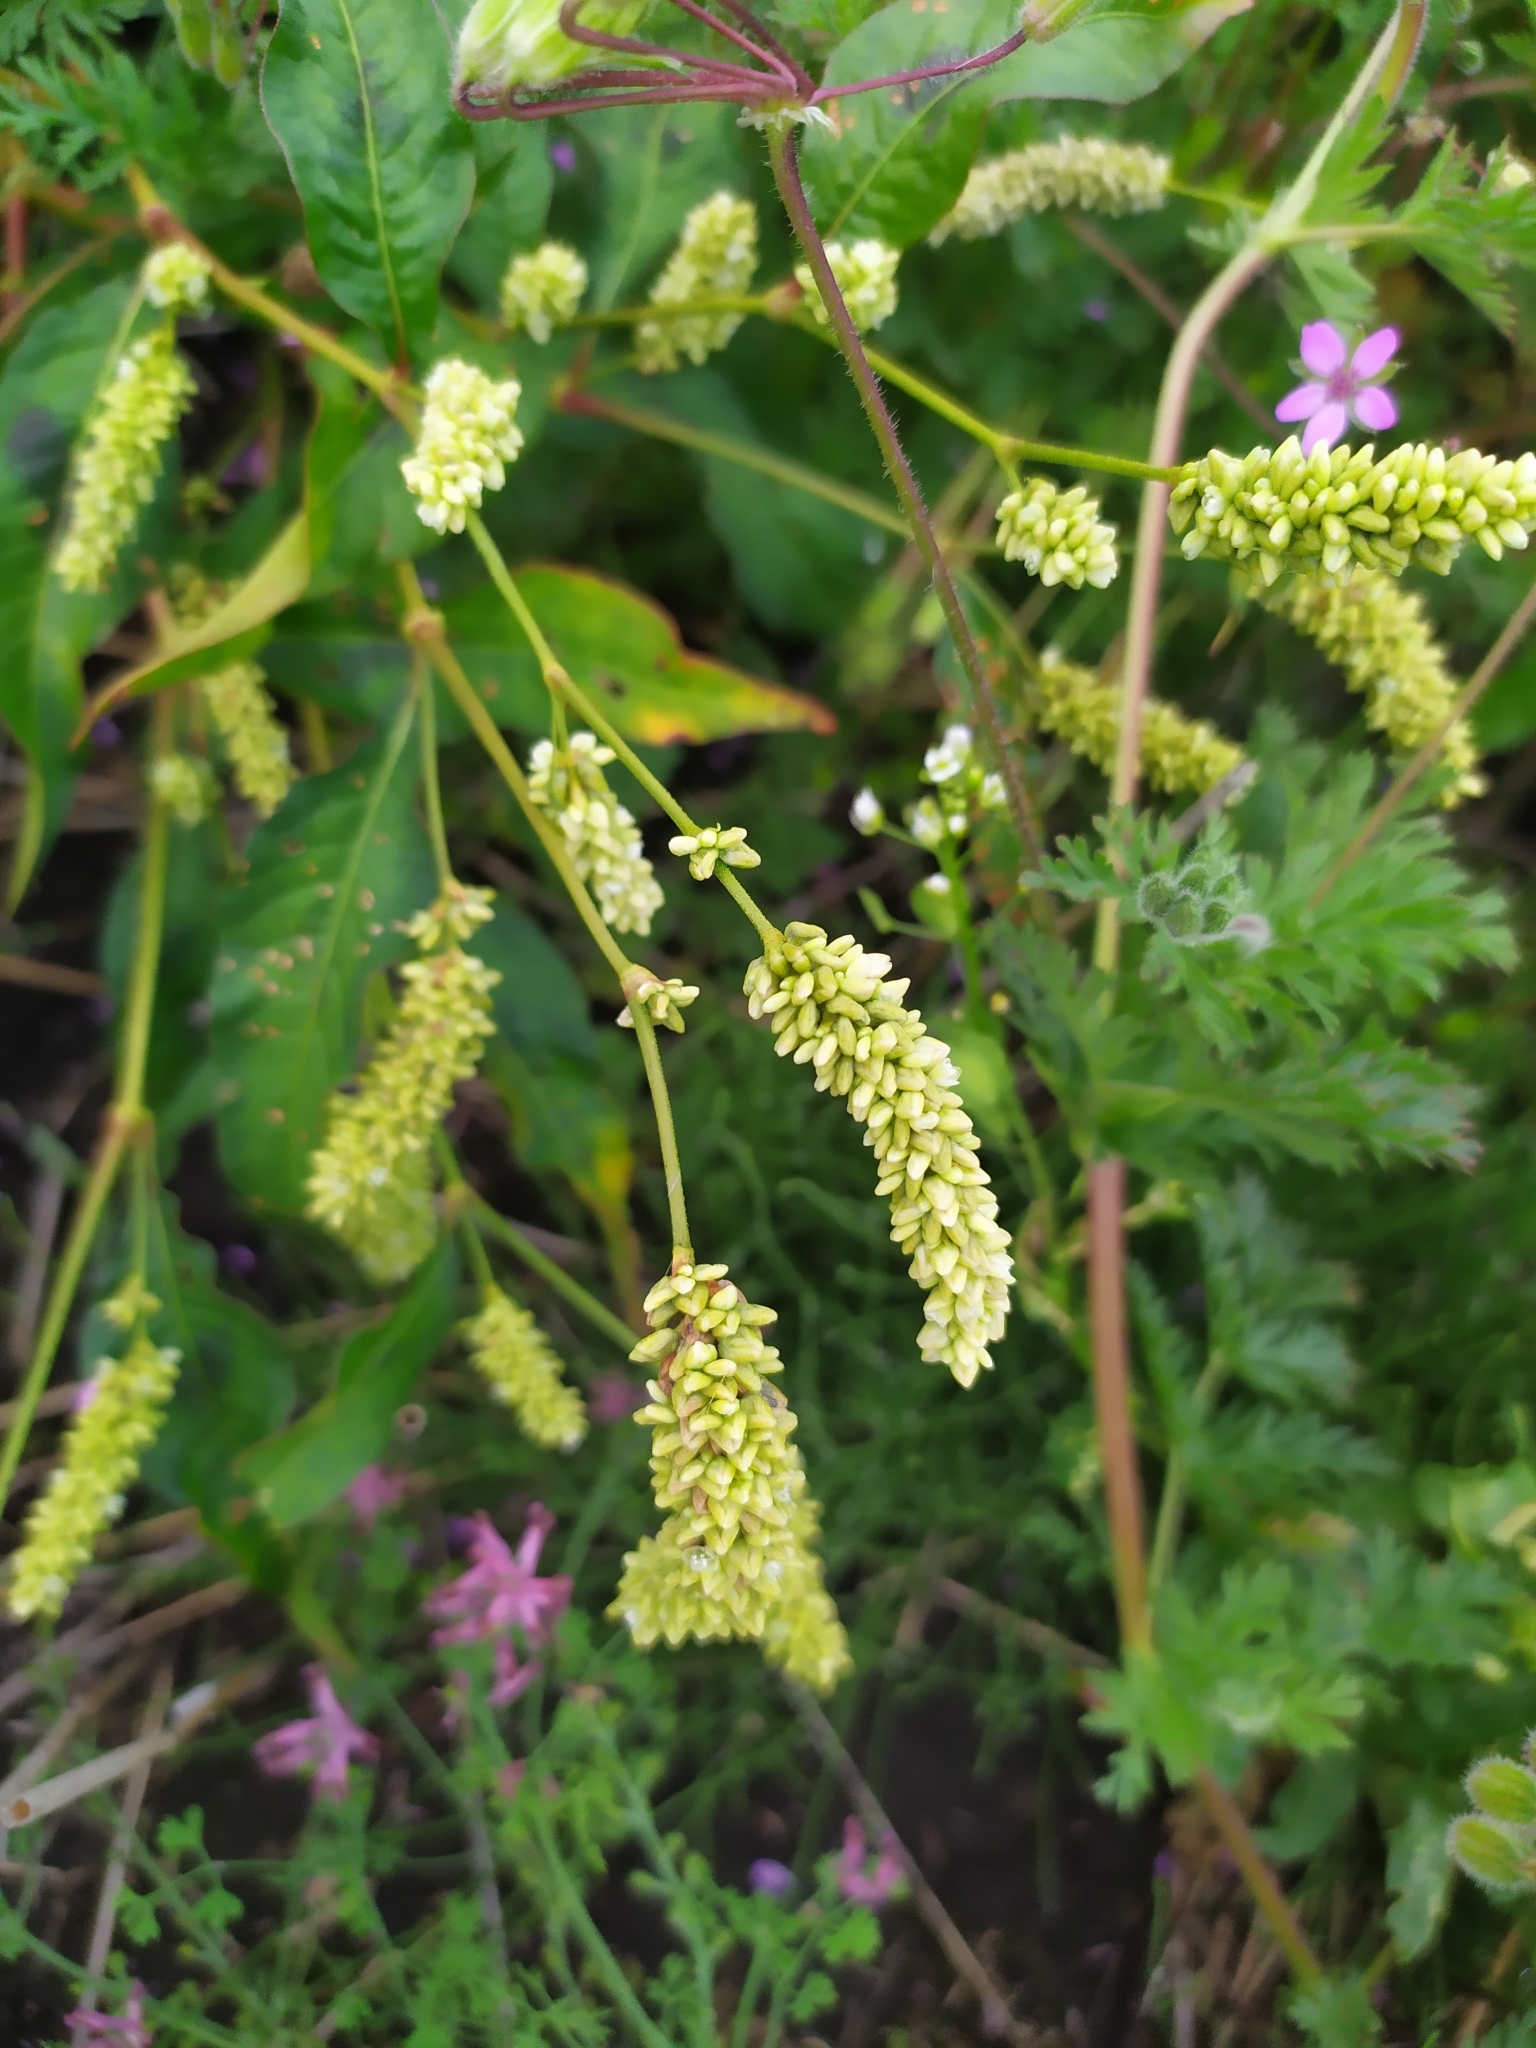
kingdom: Plantae
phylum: Tracheophyta
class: Magnoliopsida
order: Caryophyllales
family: Polygonaceae
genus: Persicaria
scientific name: Persicaria lapathifolia
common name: Curlytop knotweed
